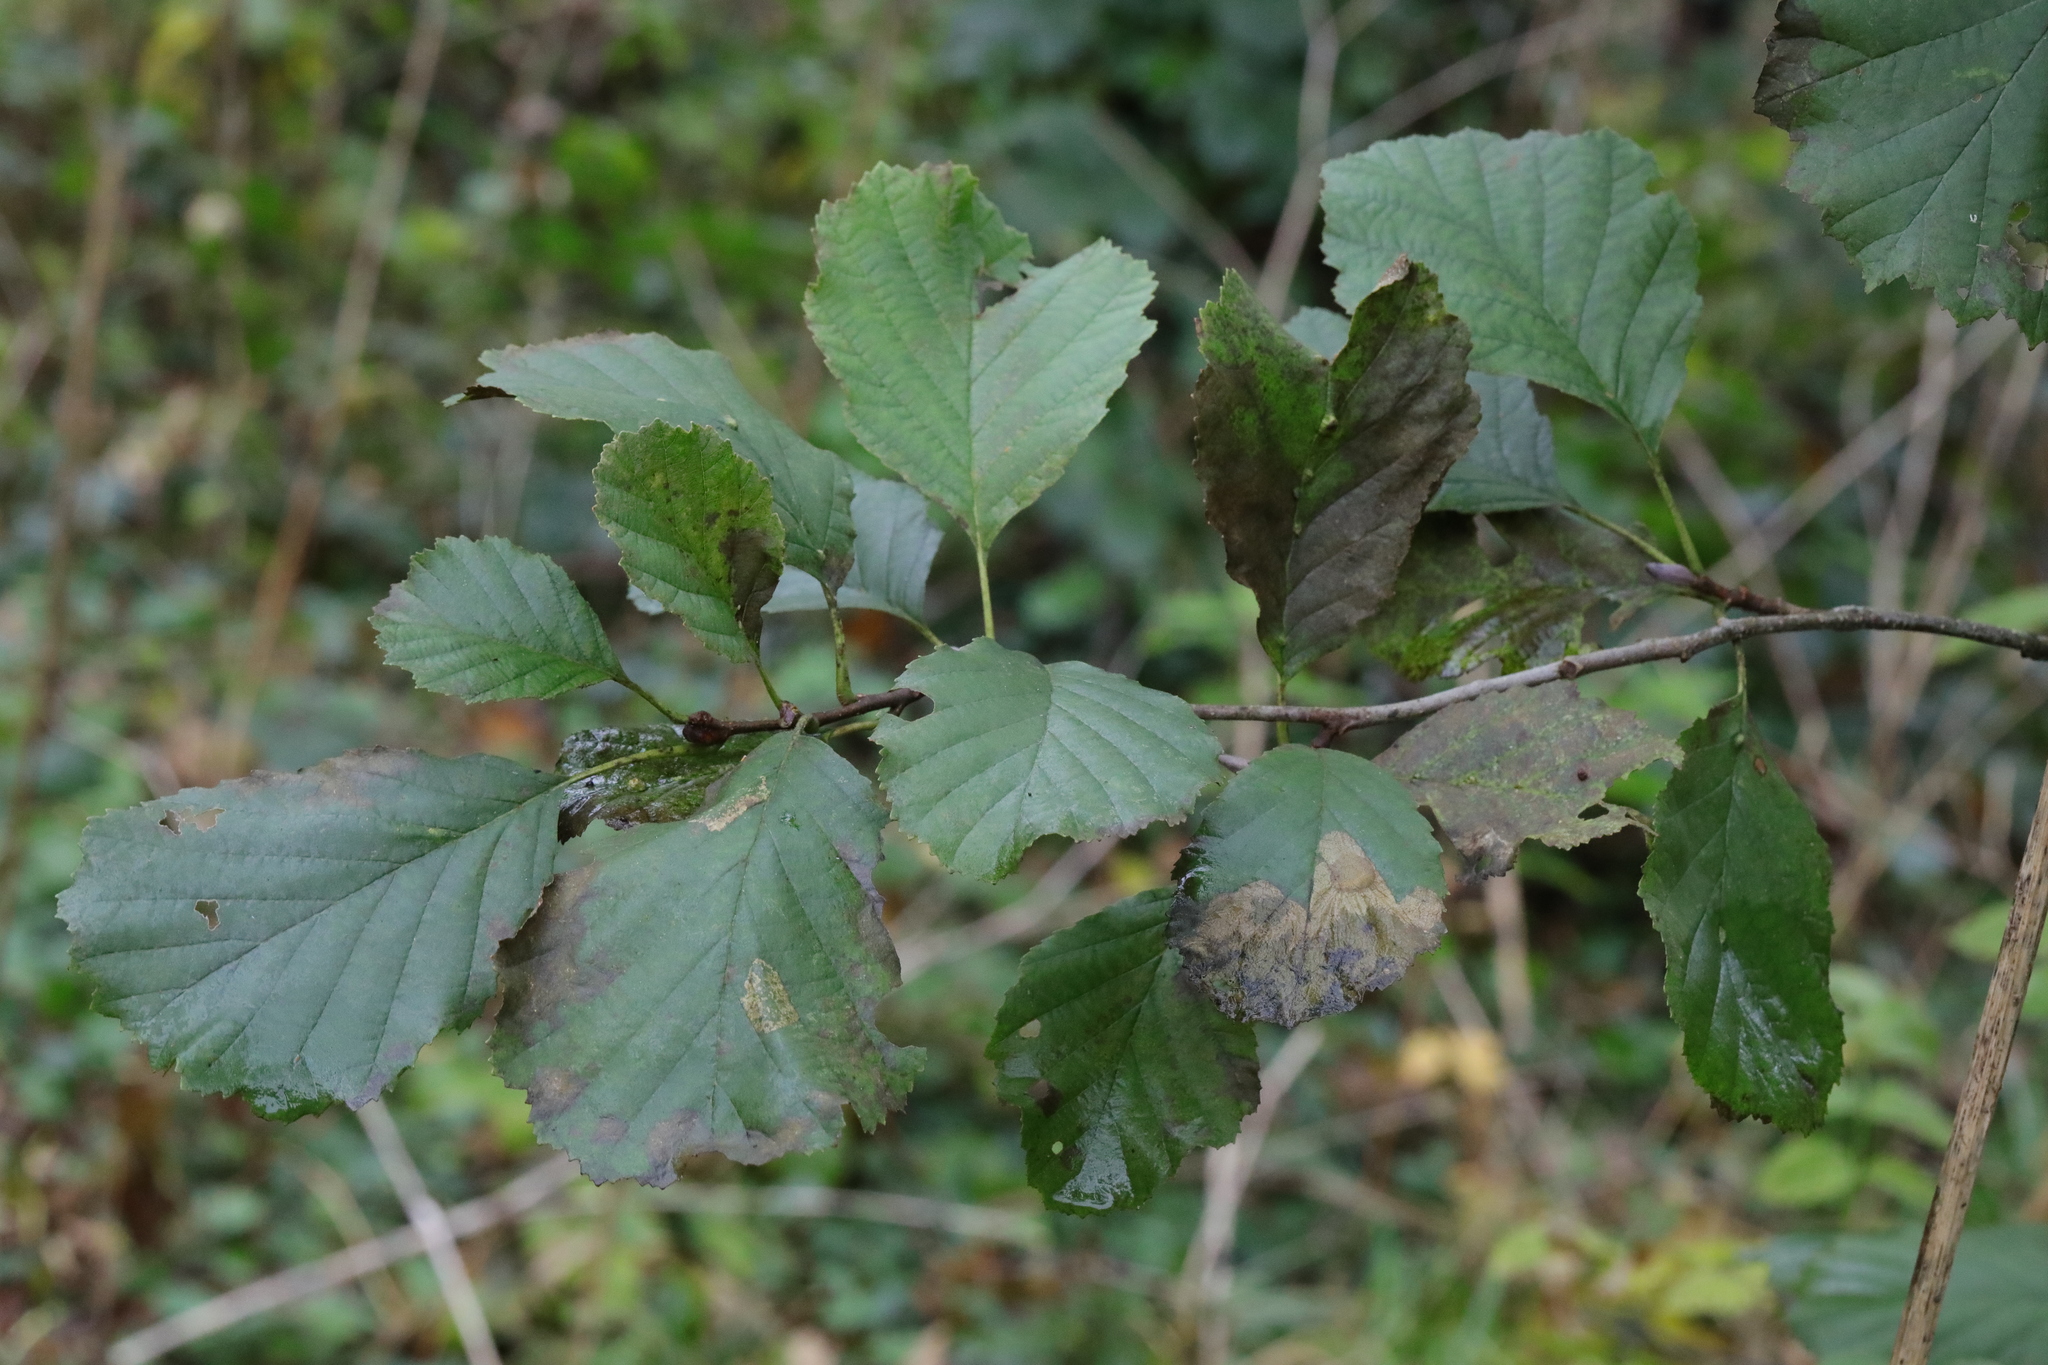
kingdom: Animalia
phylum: Arthropoda
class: Insecta
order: Hymenoptera
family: Tenthredinidae
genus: Heterarthrus
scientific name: Heterarthrus vagans
